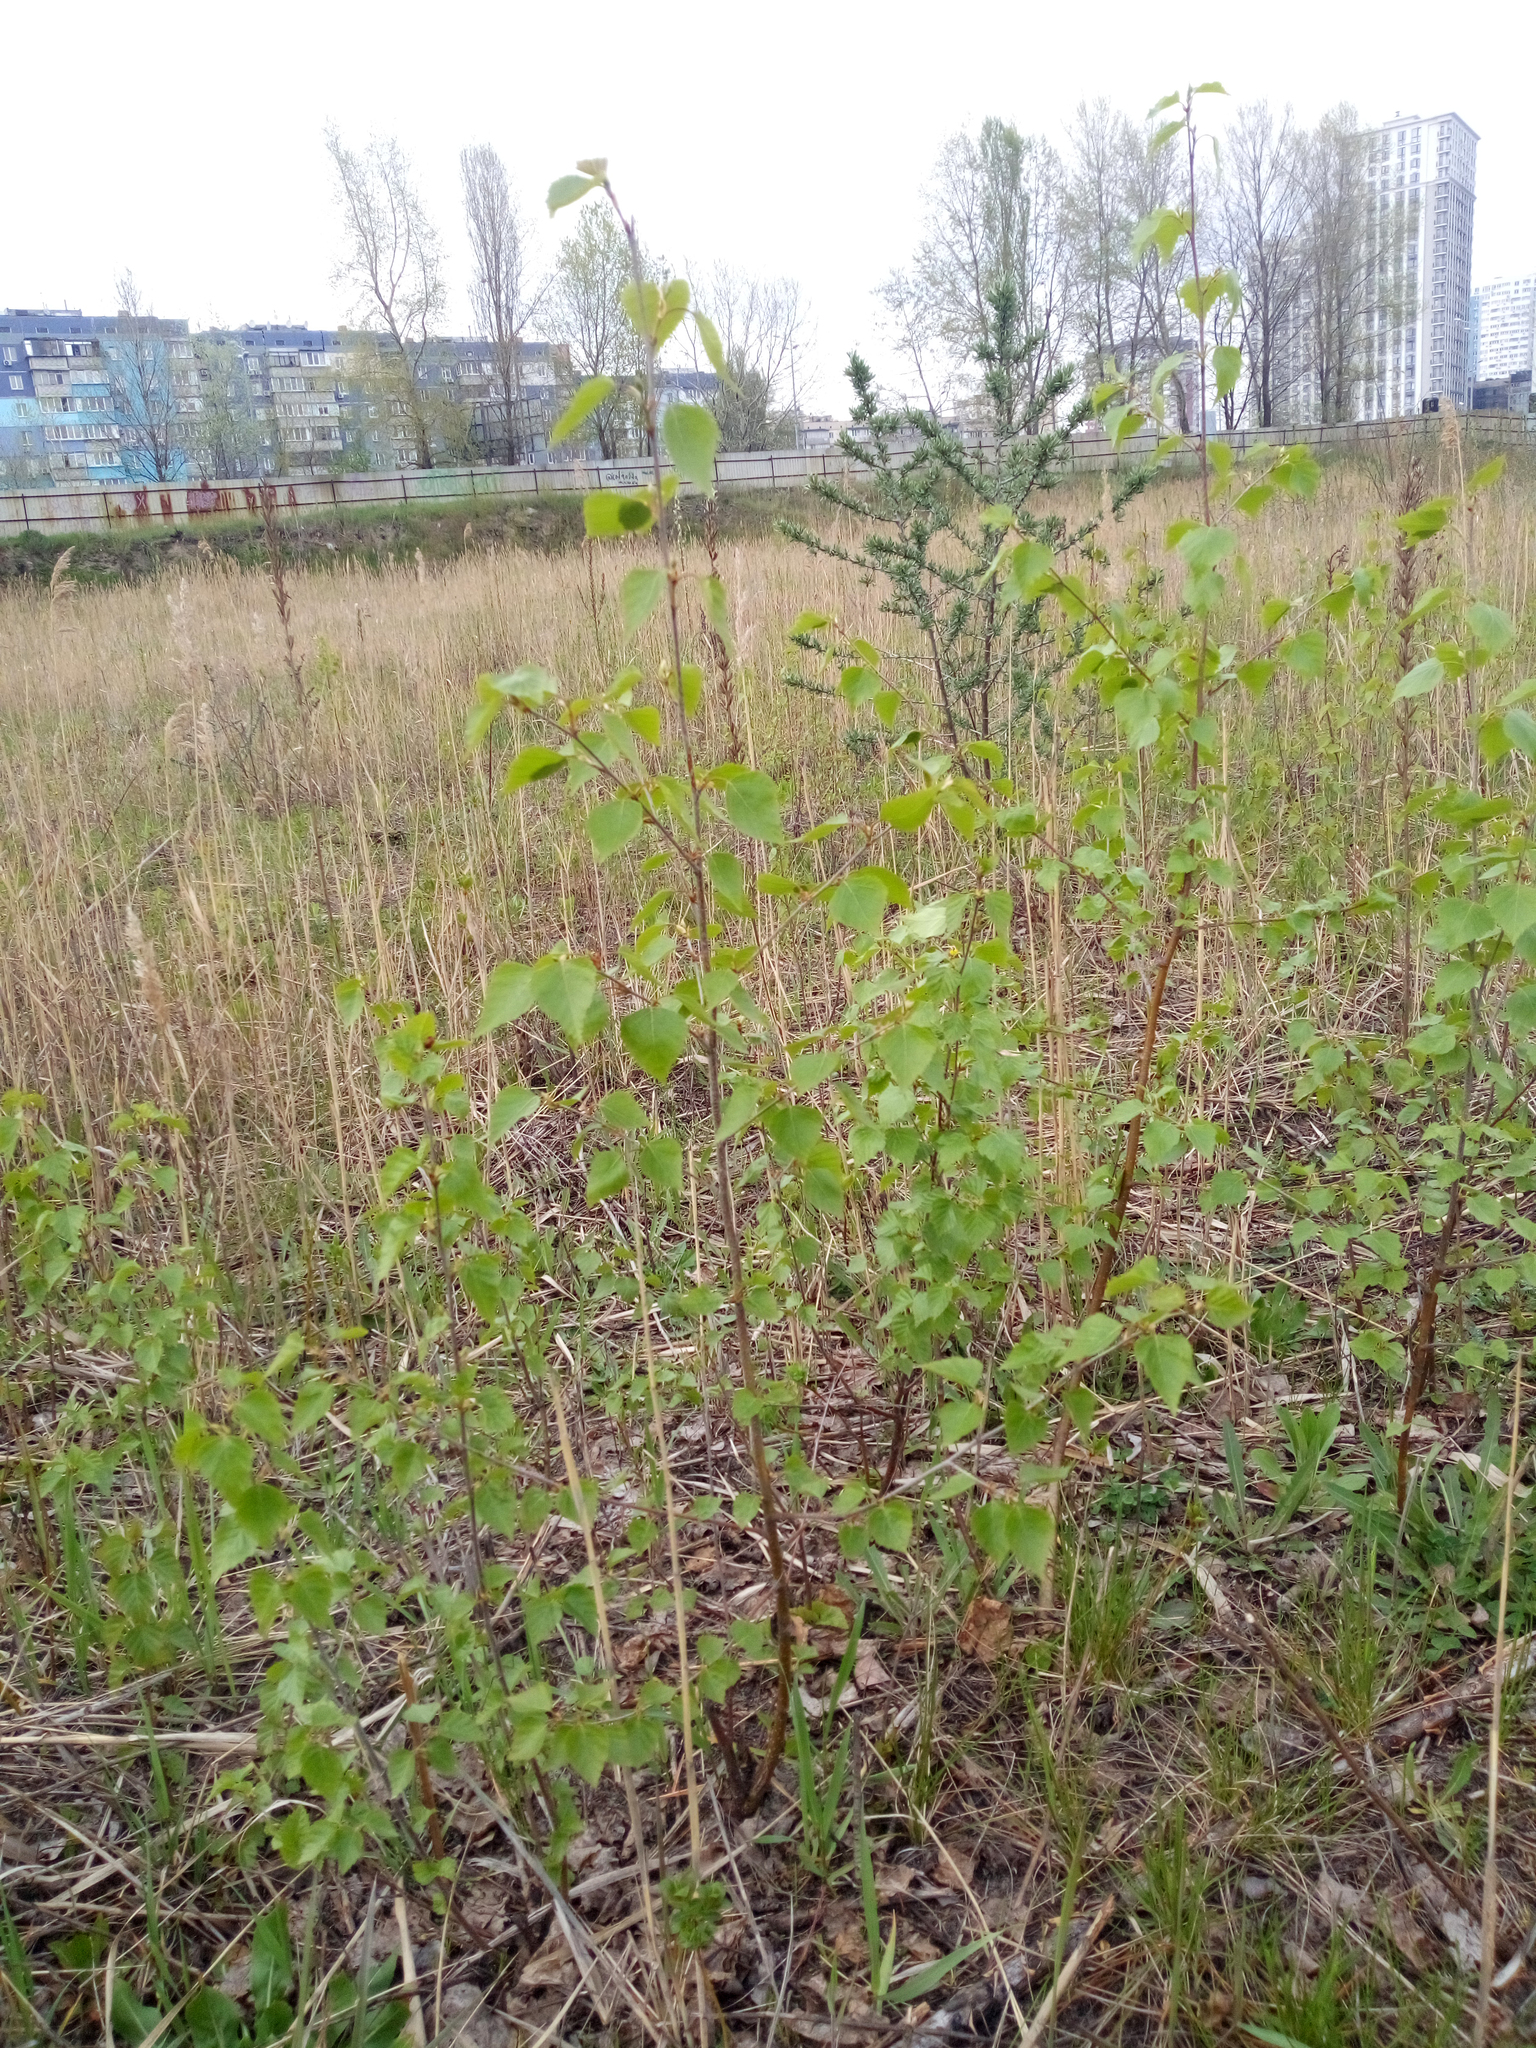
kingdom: Plantae
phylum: Tracheophyta
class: Magnoliopsida
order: Fagales
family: Betulaceae
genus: Betula
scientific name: Betula pendula
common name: Silver birch
